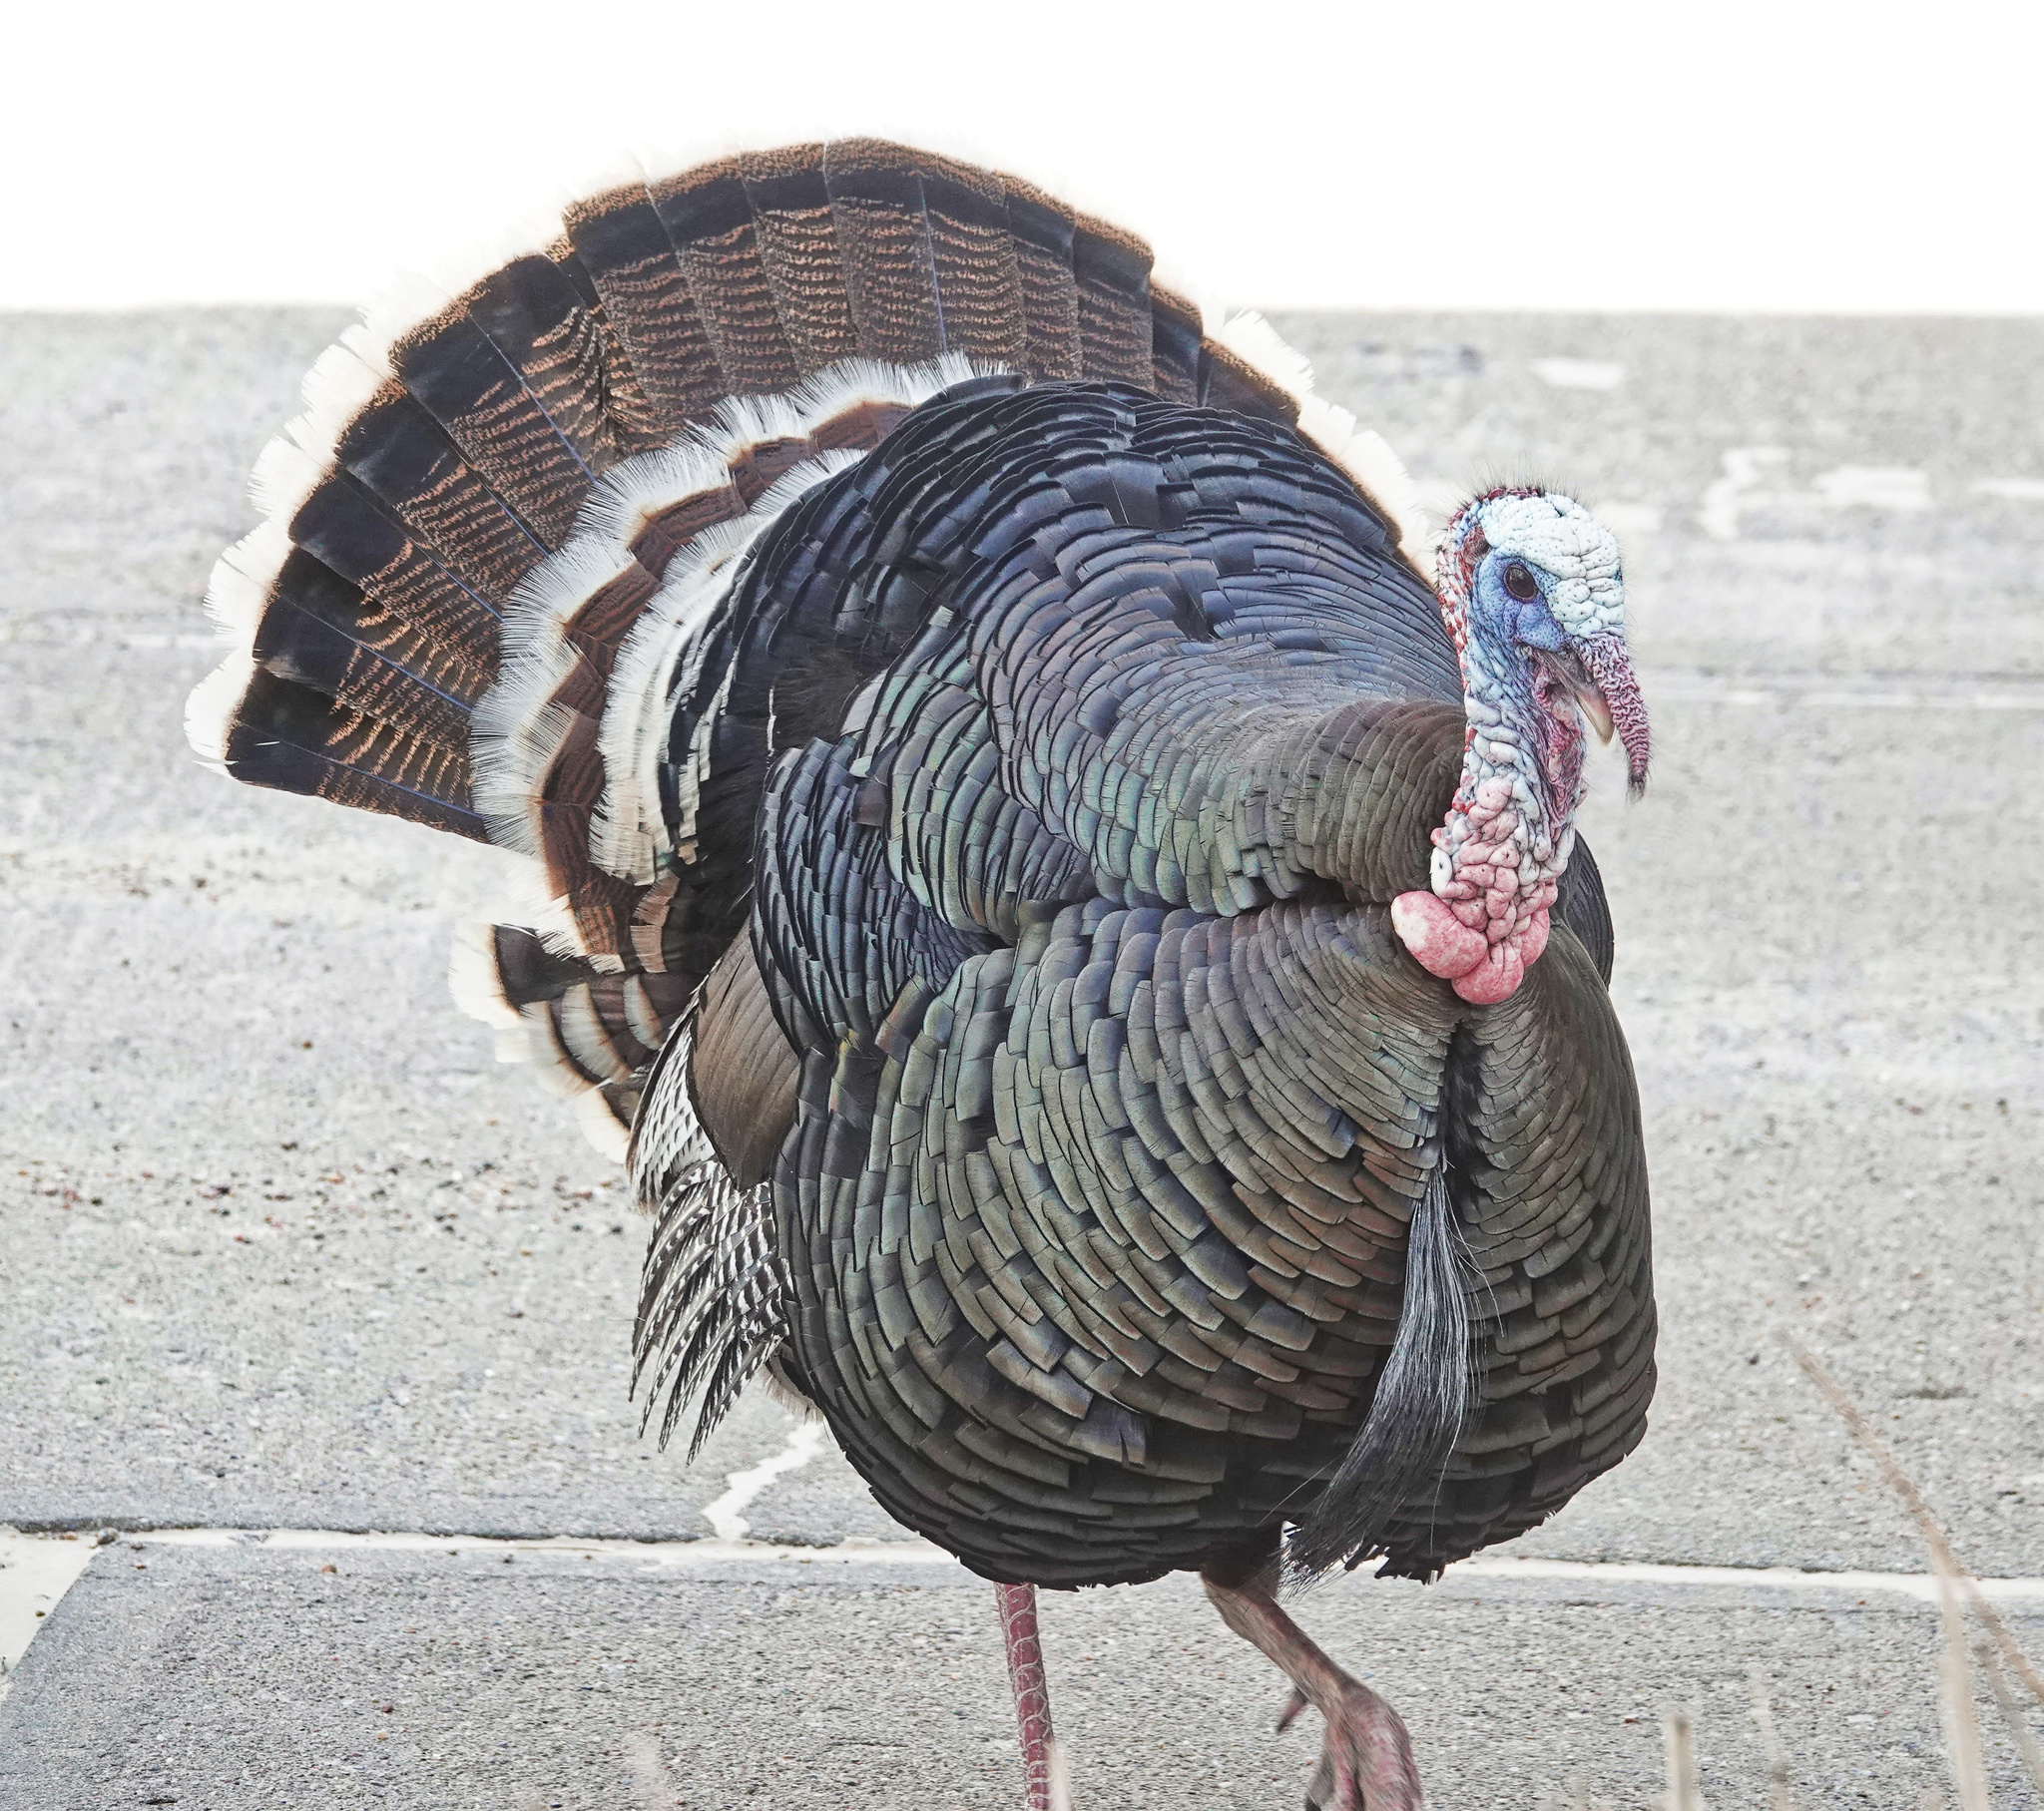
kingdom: Animalia
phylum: Chordata
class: Aves
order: Galliformes
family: Phasianidae
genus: Meleagris
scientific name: Meleagris gallopavo
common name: Wild turkey
